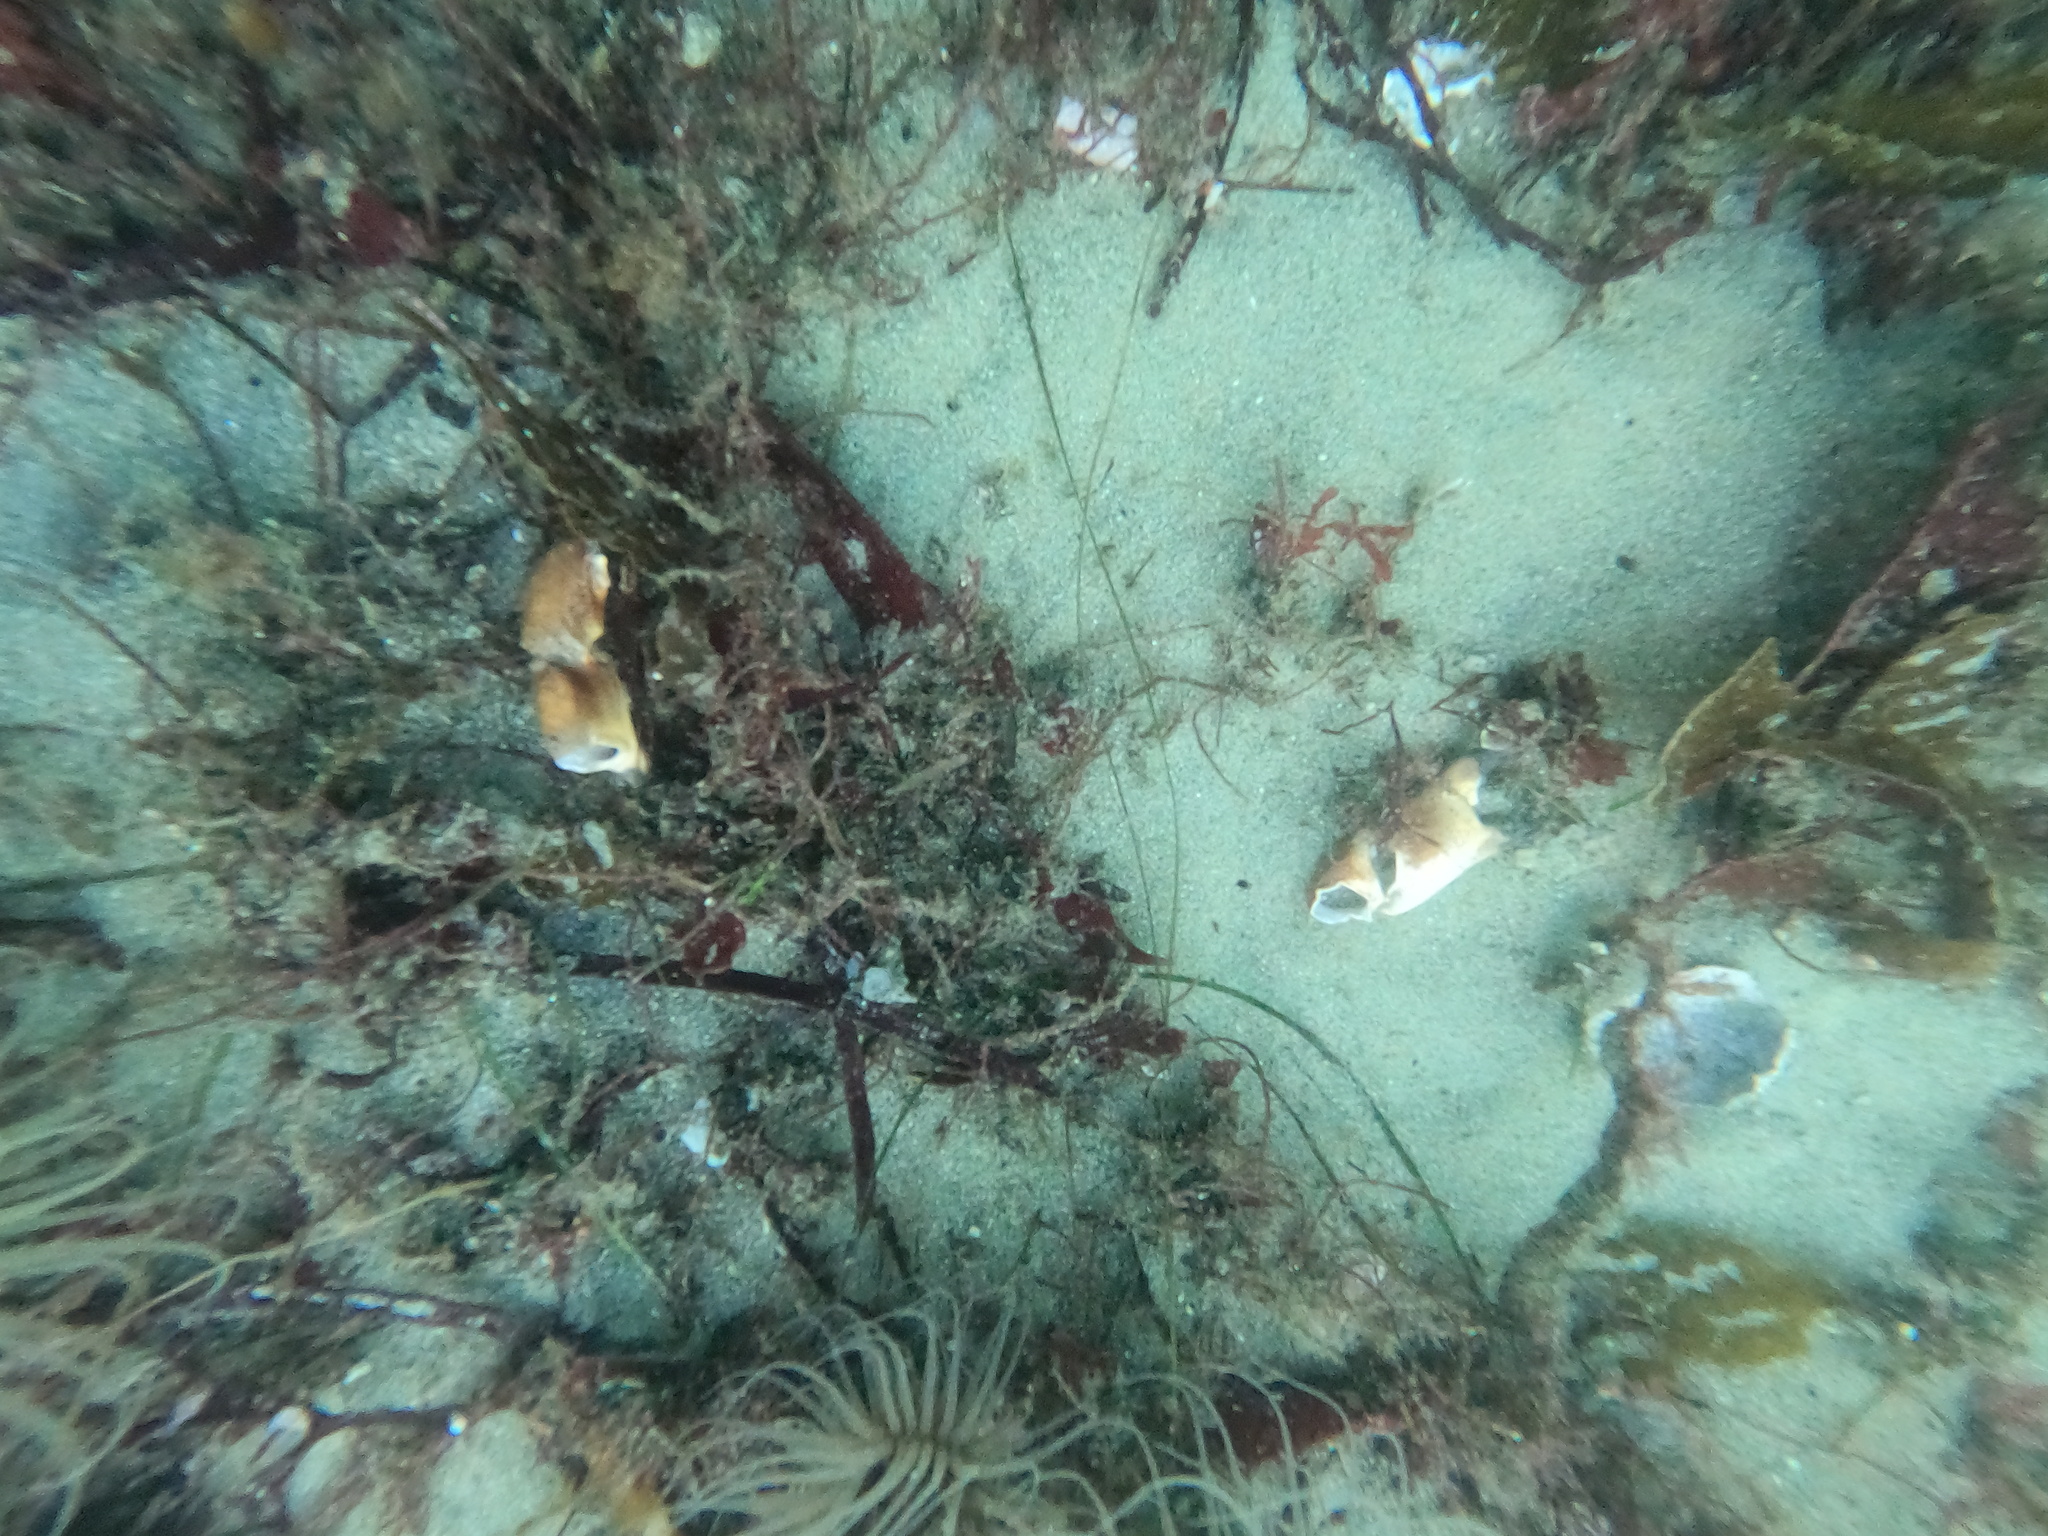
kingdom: Animalia
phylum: Arthropoda
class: Malacostraca
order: Decapoda
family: Cancridae
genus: Romaleon
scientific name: Romaleon antennarium
